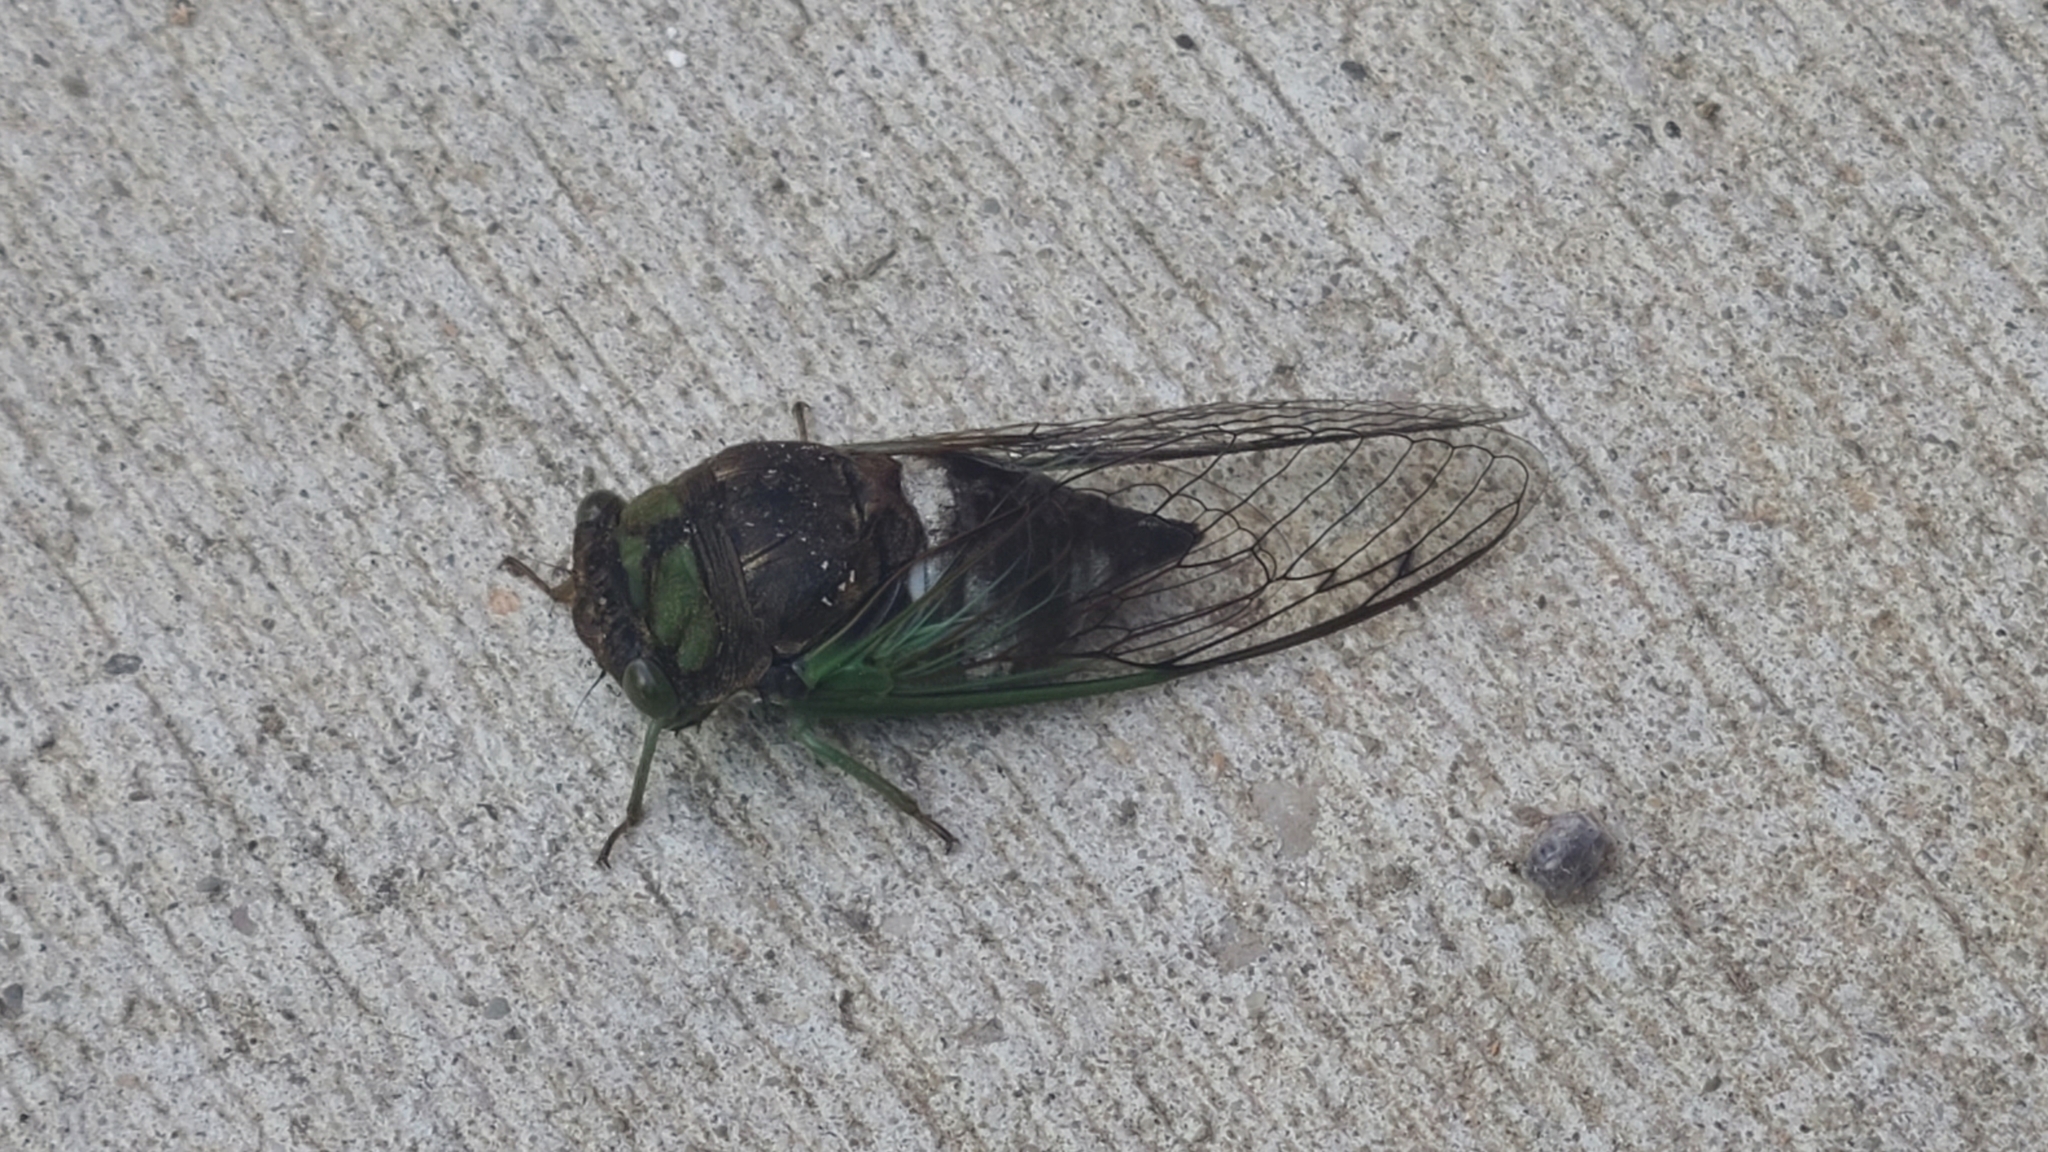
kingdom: Animalia
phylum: Arthropoda
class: Insecta
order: Hemiptera
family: Cicadidae
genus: Neotibicen
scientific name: Neotibicen tibicen
